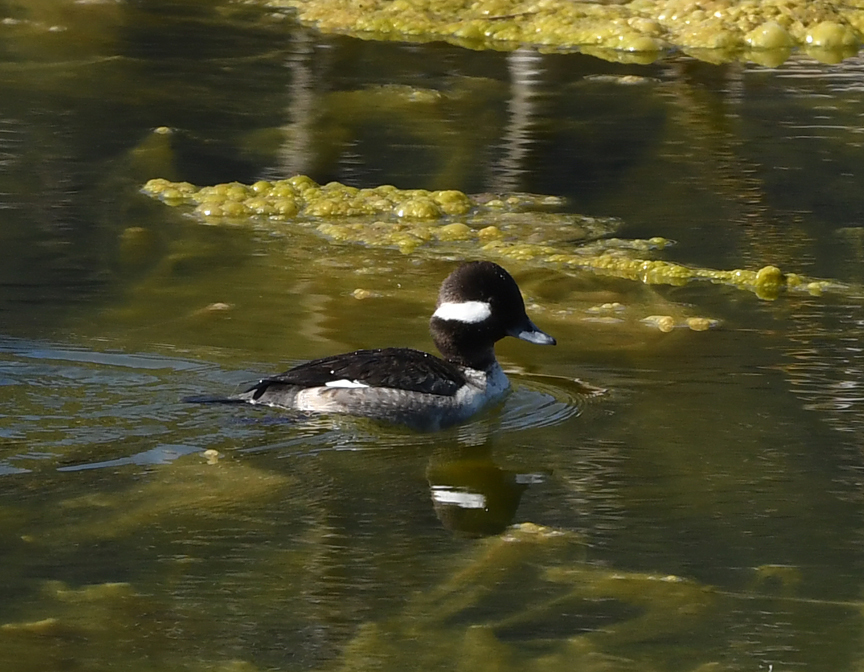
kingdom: Animalia
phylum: Chordata
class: Aves
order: Anseriformes
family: Anatidae
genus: Bucephala
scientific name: Bucephala albeola
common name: Bufflehead
